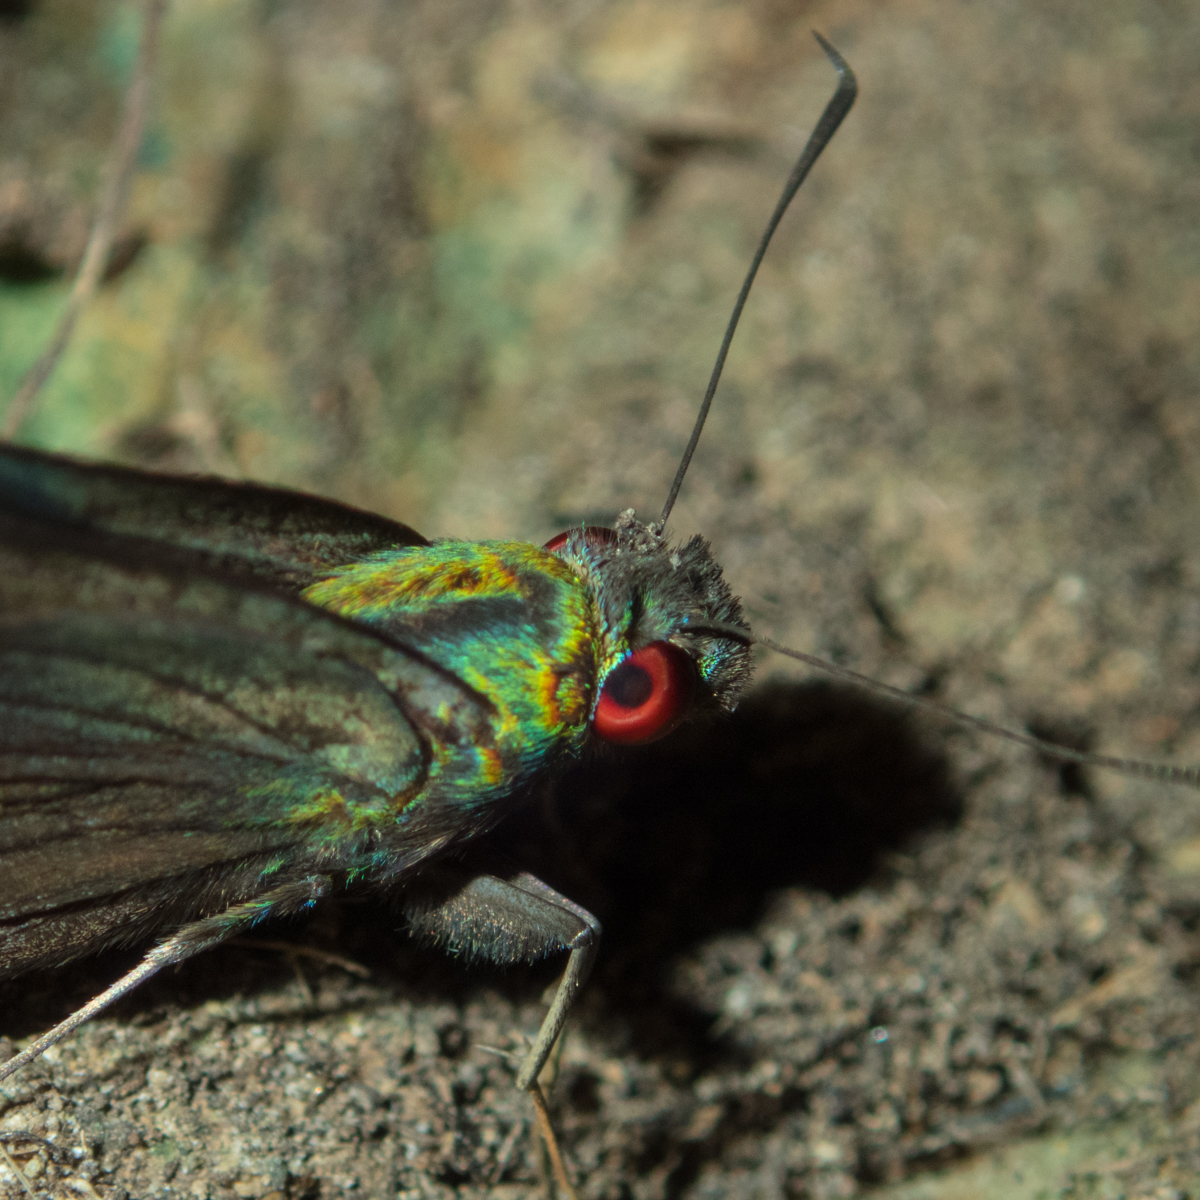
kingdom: Animalia
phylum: Arthropoda
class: Insecta
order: Lepidoptera
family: Hesperiidae
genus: Matapa
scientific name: Matapa sasivarna
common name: Black-veined redeye
